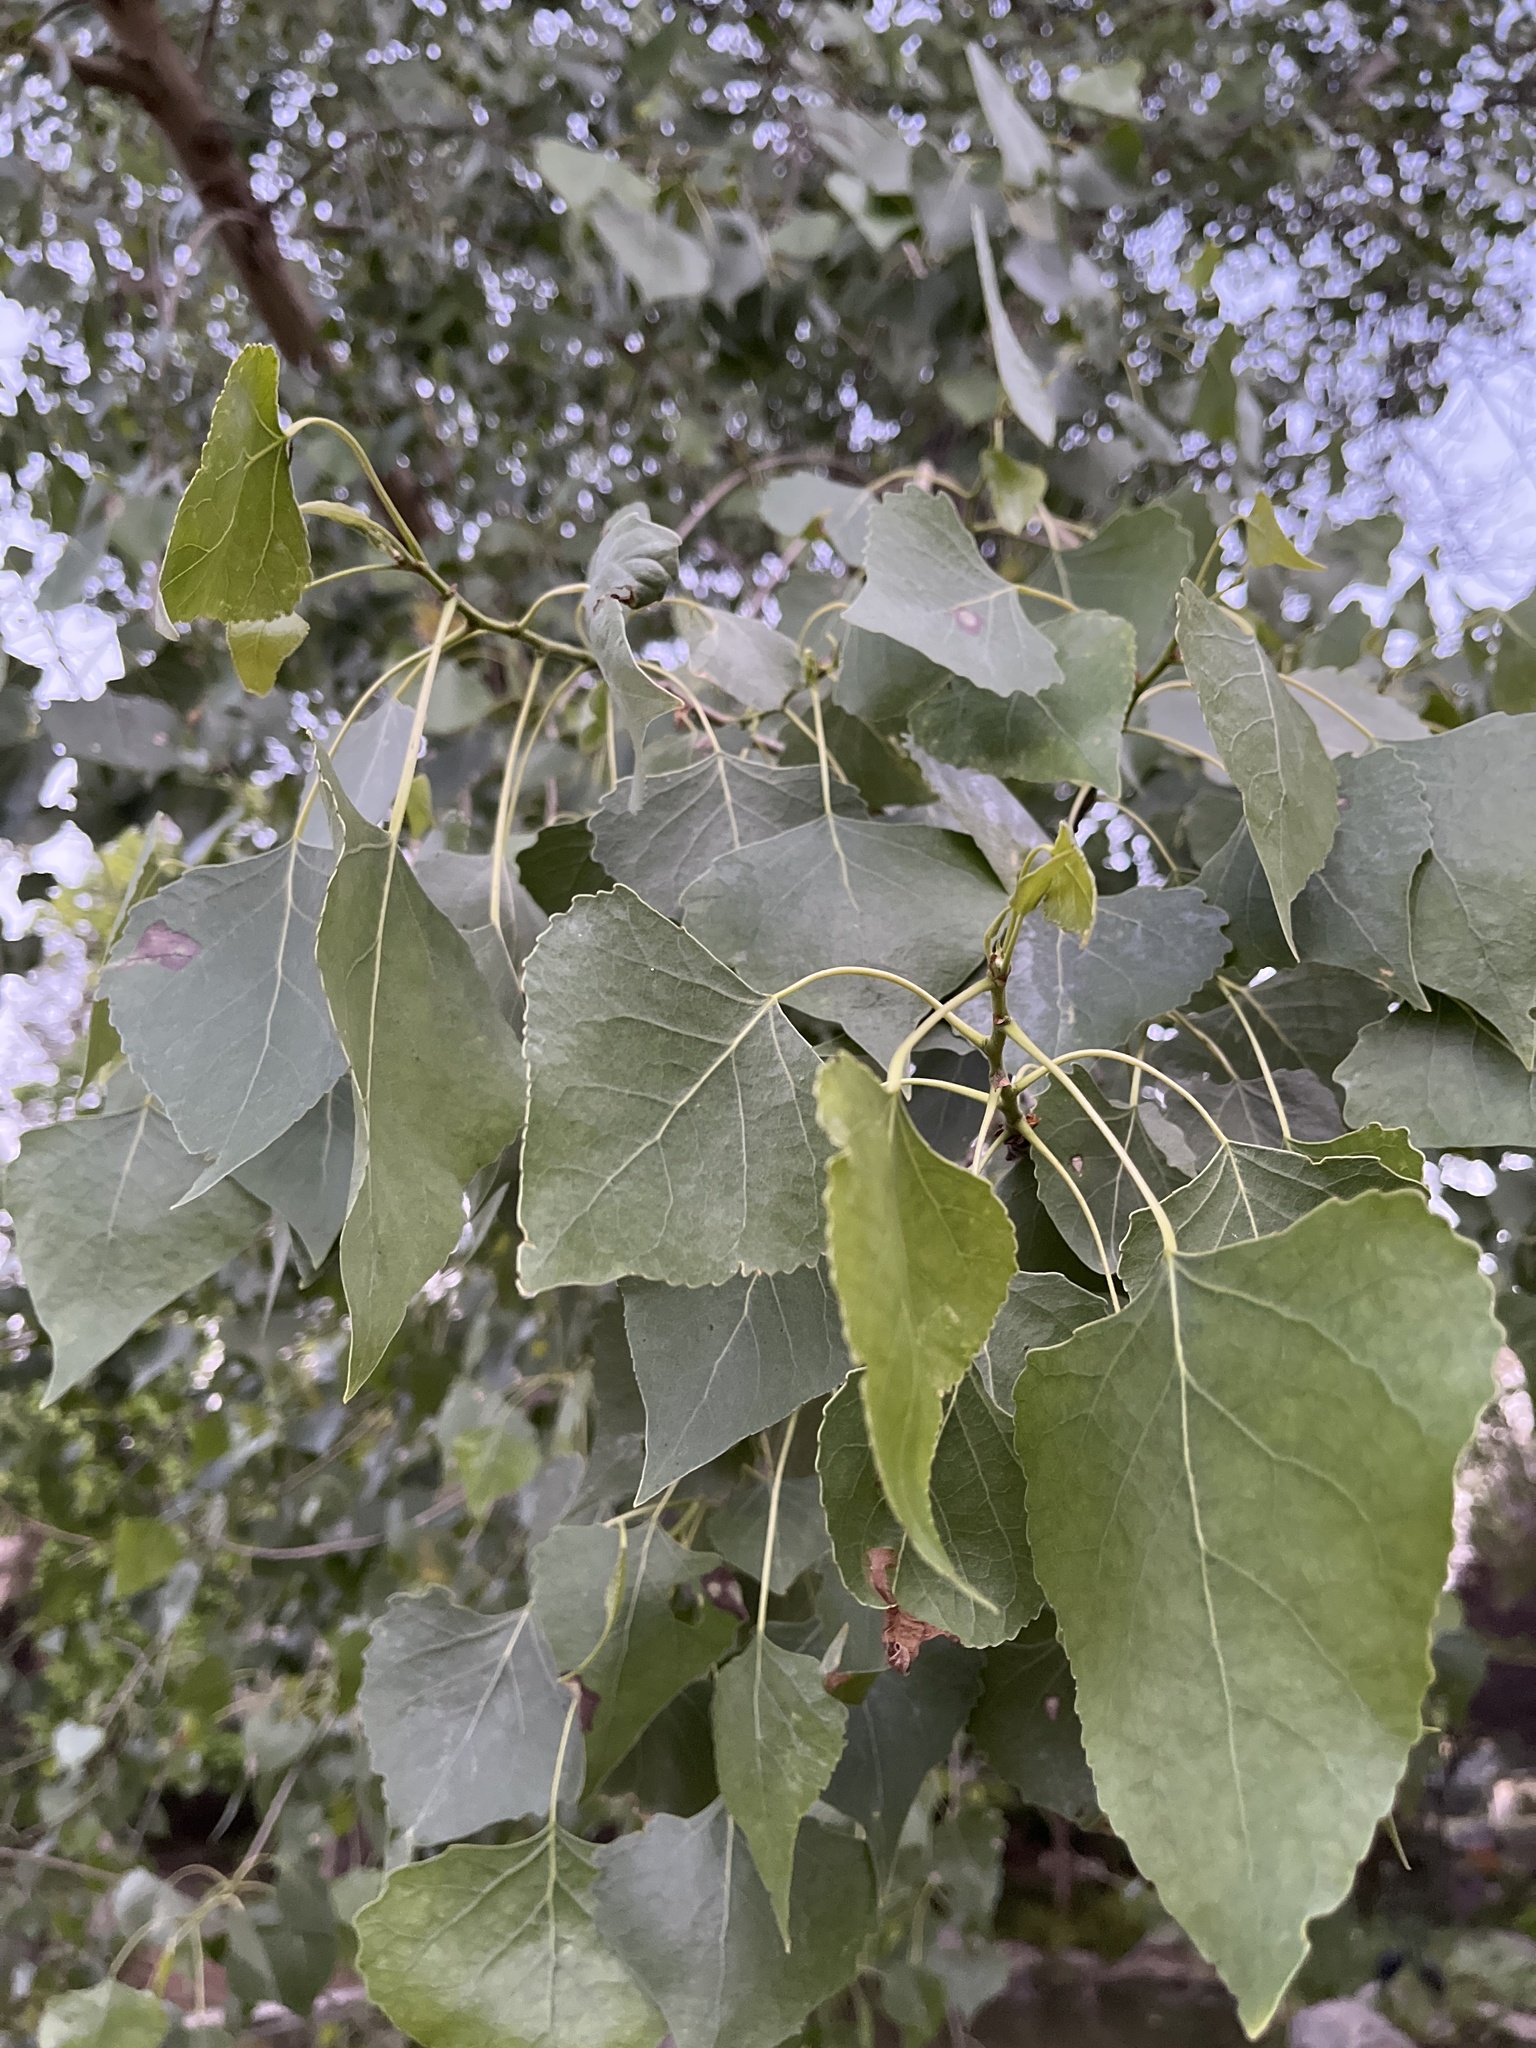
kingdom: Plantae
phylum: Tracheophyta
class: Magnoliopsida
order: Malpighiales
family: Salicaceae
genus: Populus
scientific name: Populus fremontii
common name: Fremont's cottonwood
